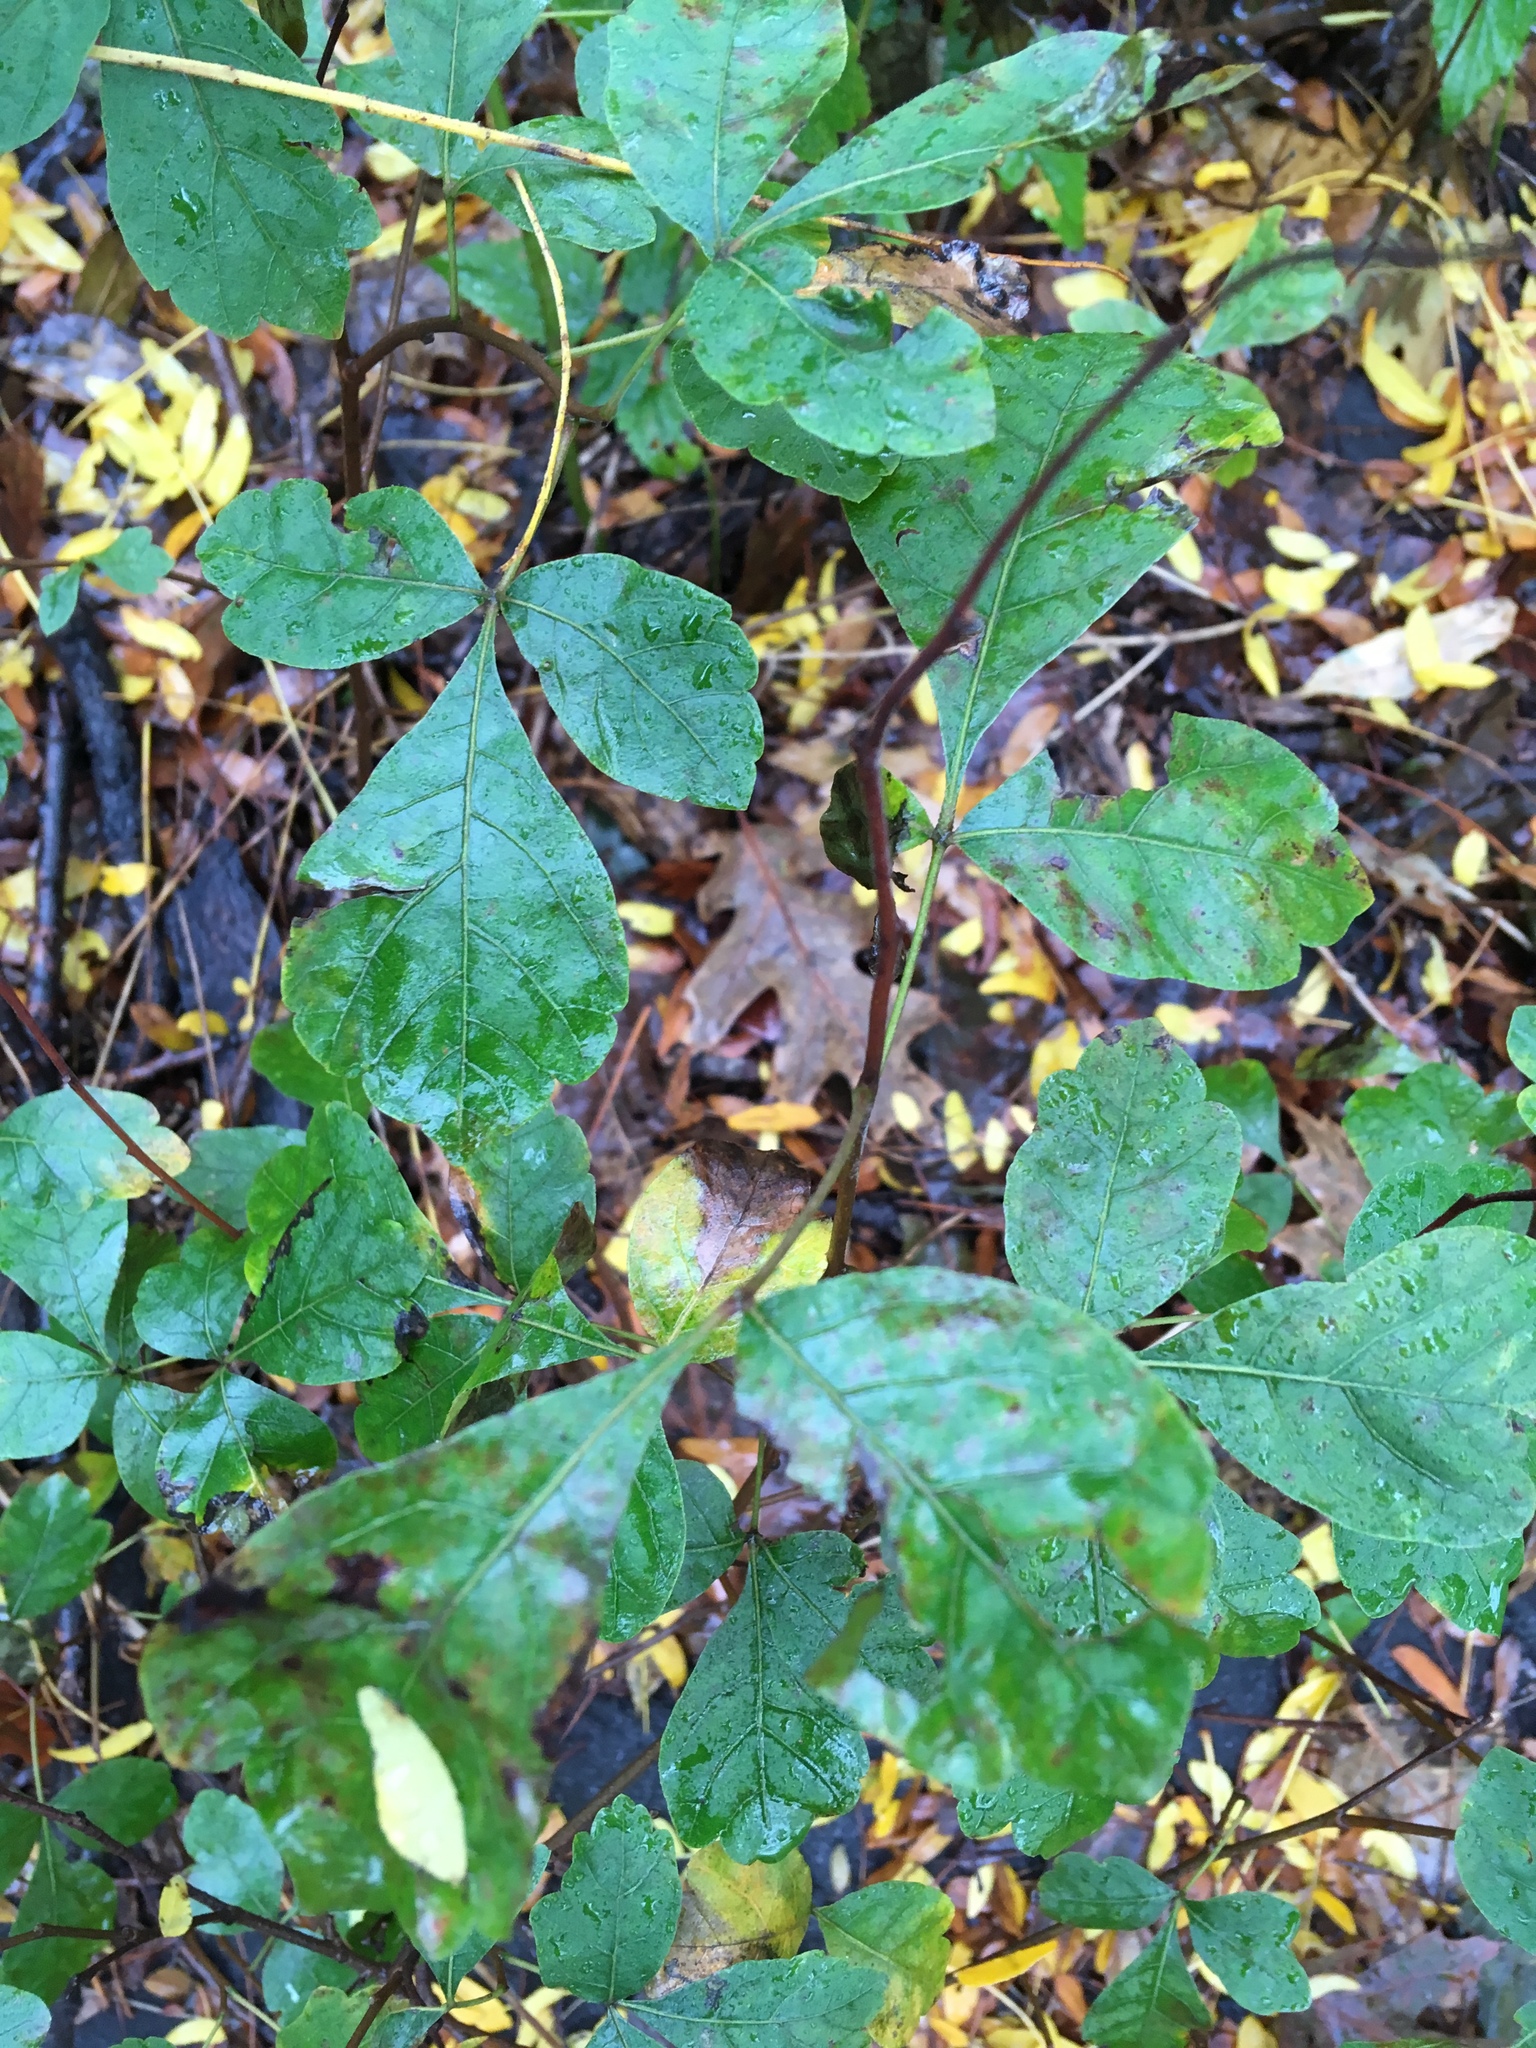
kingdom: Plantae
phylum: Tracheophyta
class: Magnoliopsida
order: Sapindales
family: Anacardiaceae
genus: Rhus
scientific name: Rhus aromatica
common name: Aromatic sumac
